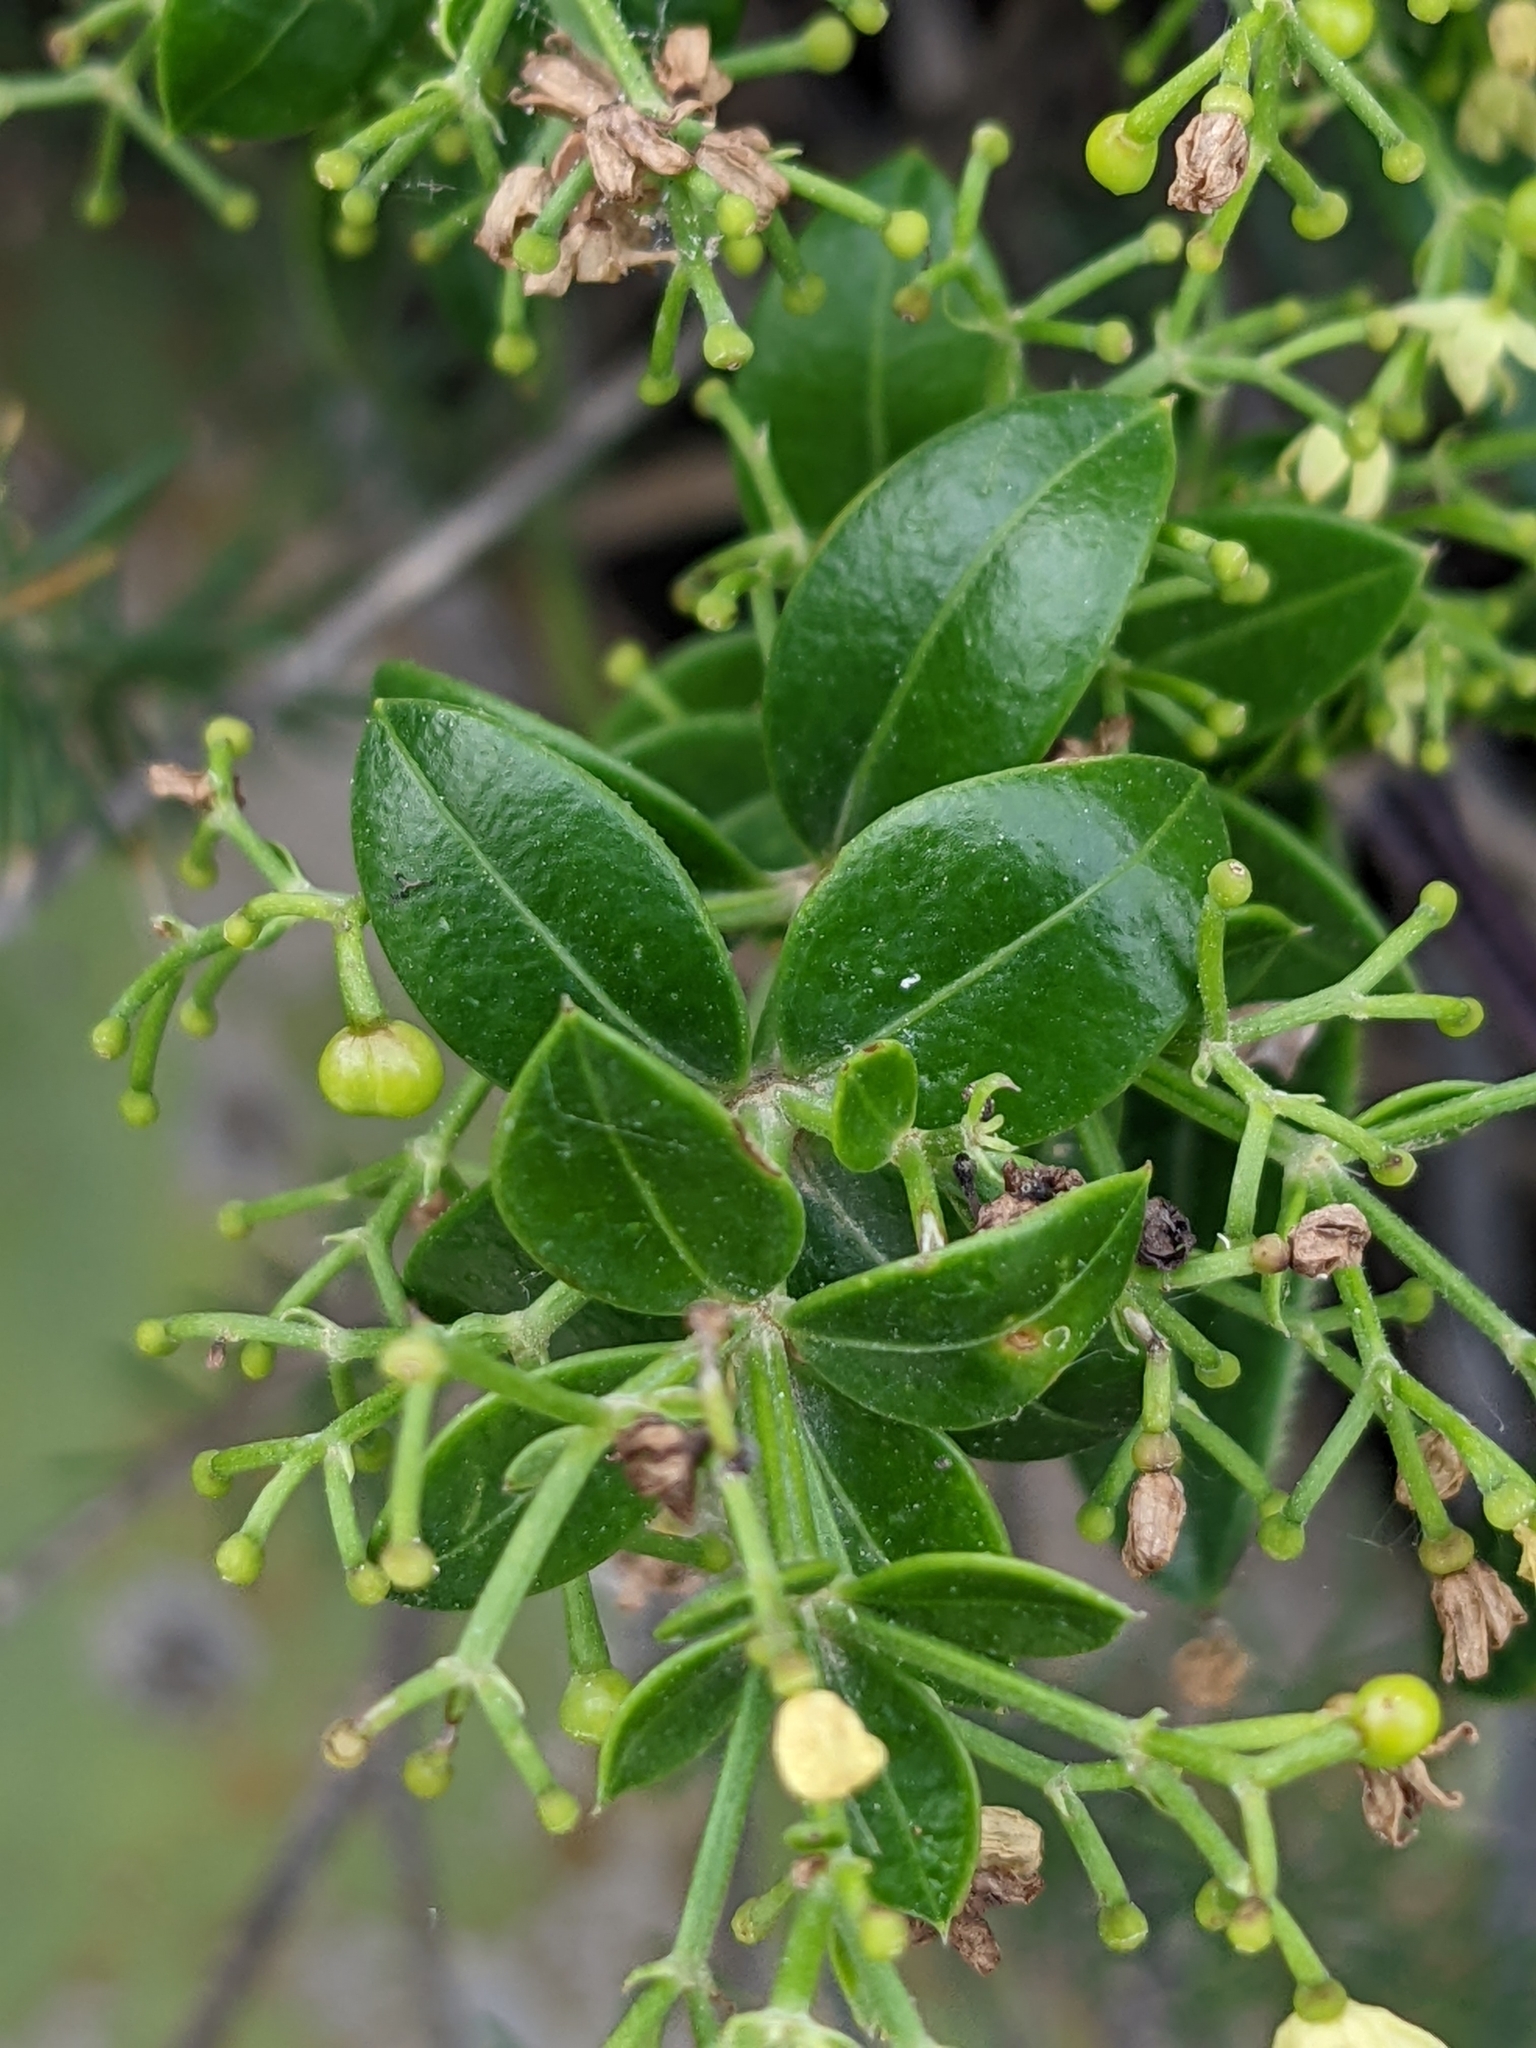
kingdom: Plantae
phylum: Tracheophyta
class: Magnoliopsida
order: Gentianales
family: Rubiaceae
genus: Rubia
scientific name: Rubia peregrina
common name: Wild madder
